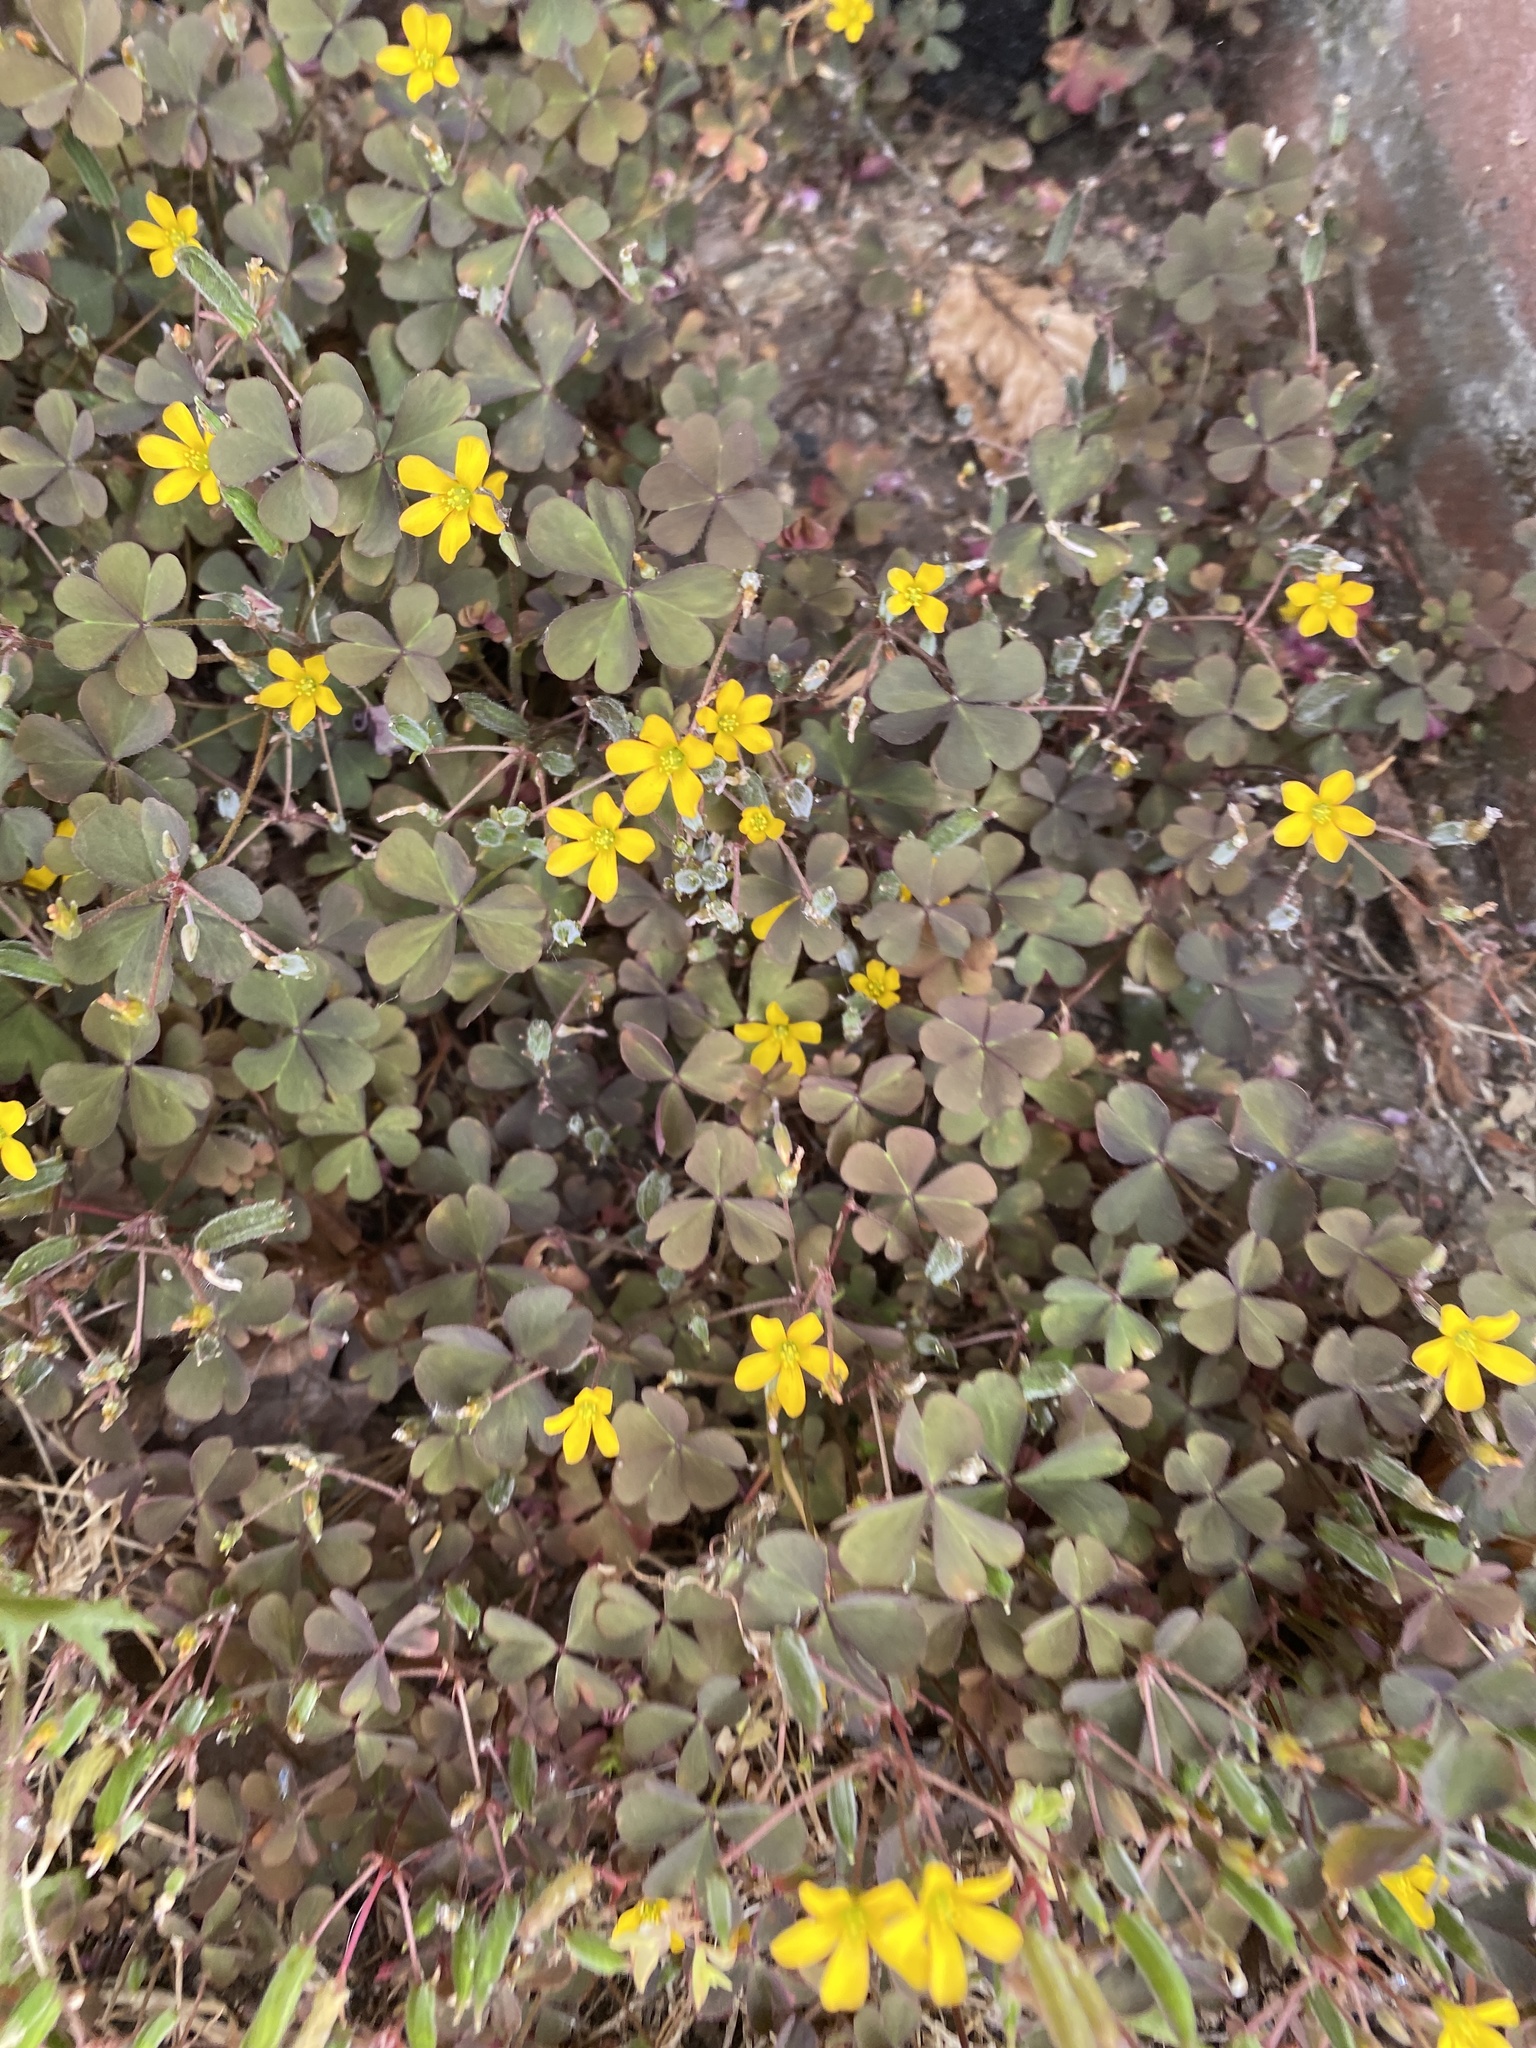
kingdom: Plantae
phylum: Tracheophyta
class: Magnoliopsida
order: Oxalidales
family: Oxalidaceae
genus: Oxalis
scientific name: Oxalis corniculata
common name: Procumbent yellow-sorrel
